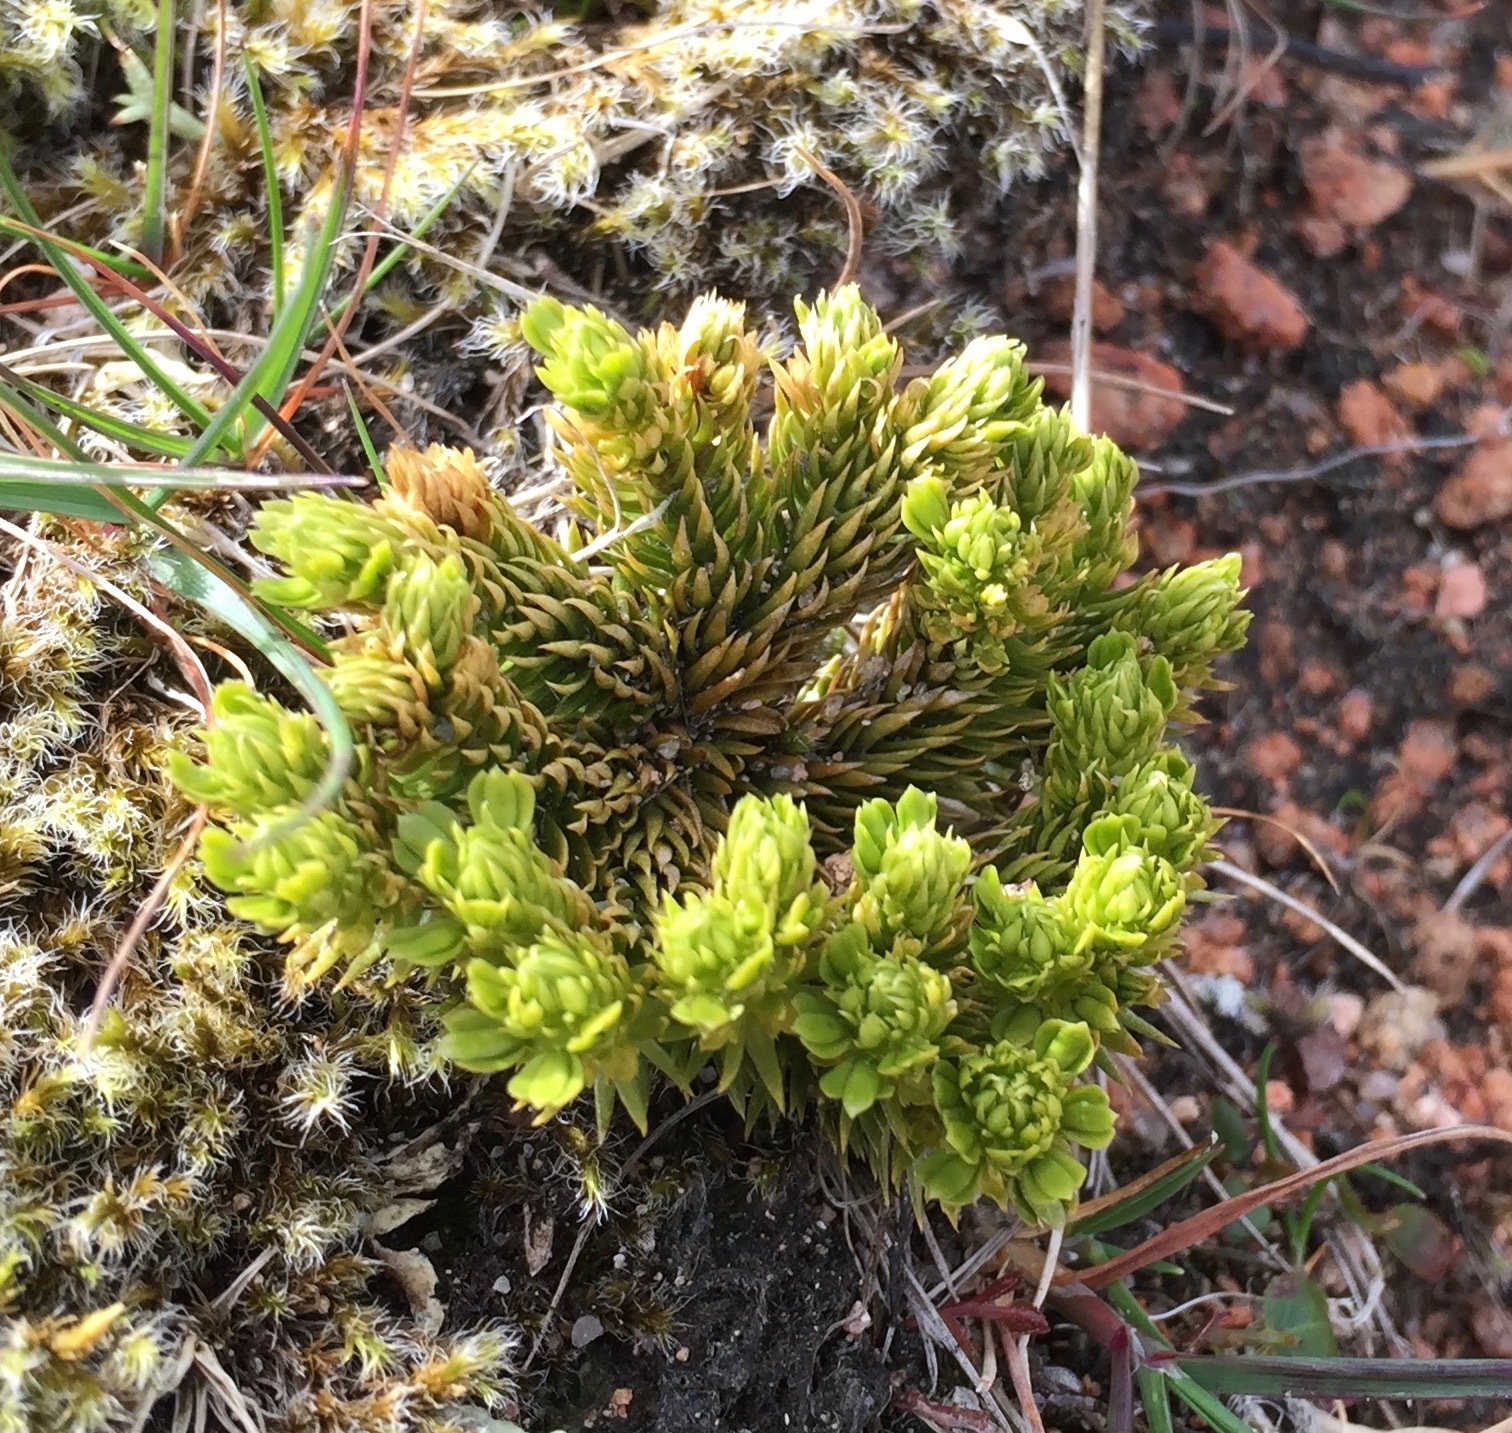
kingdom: Plantae
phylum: Tracheophyta
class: Lycopodiopsida
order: Lycopodiales
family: Lycopodiaceae
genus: Huperzia
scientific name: Huperzia selago
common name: Northern firmoss
